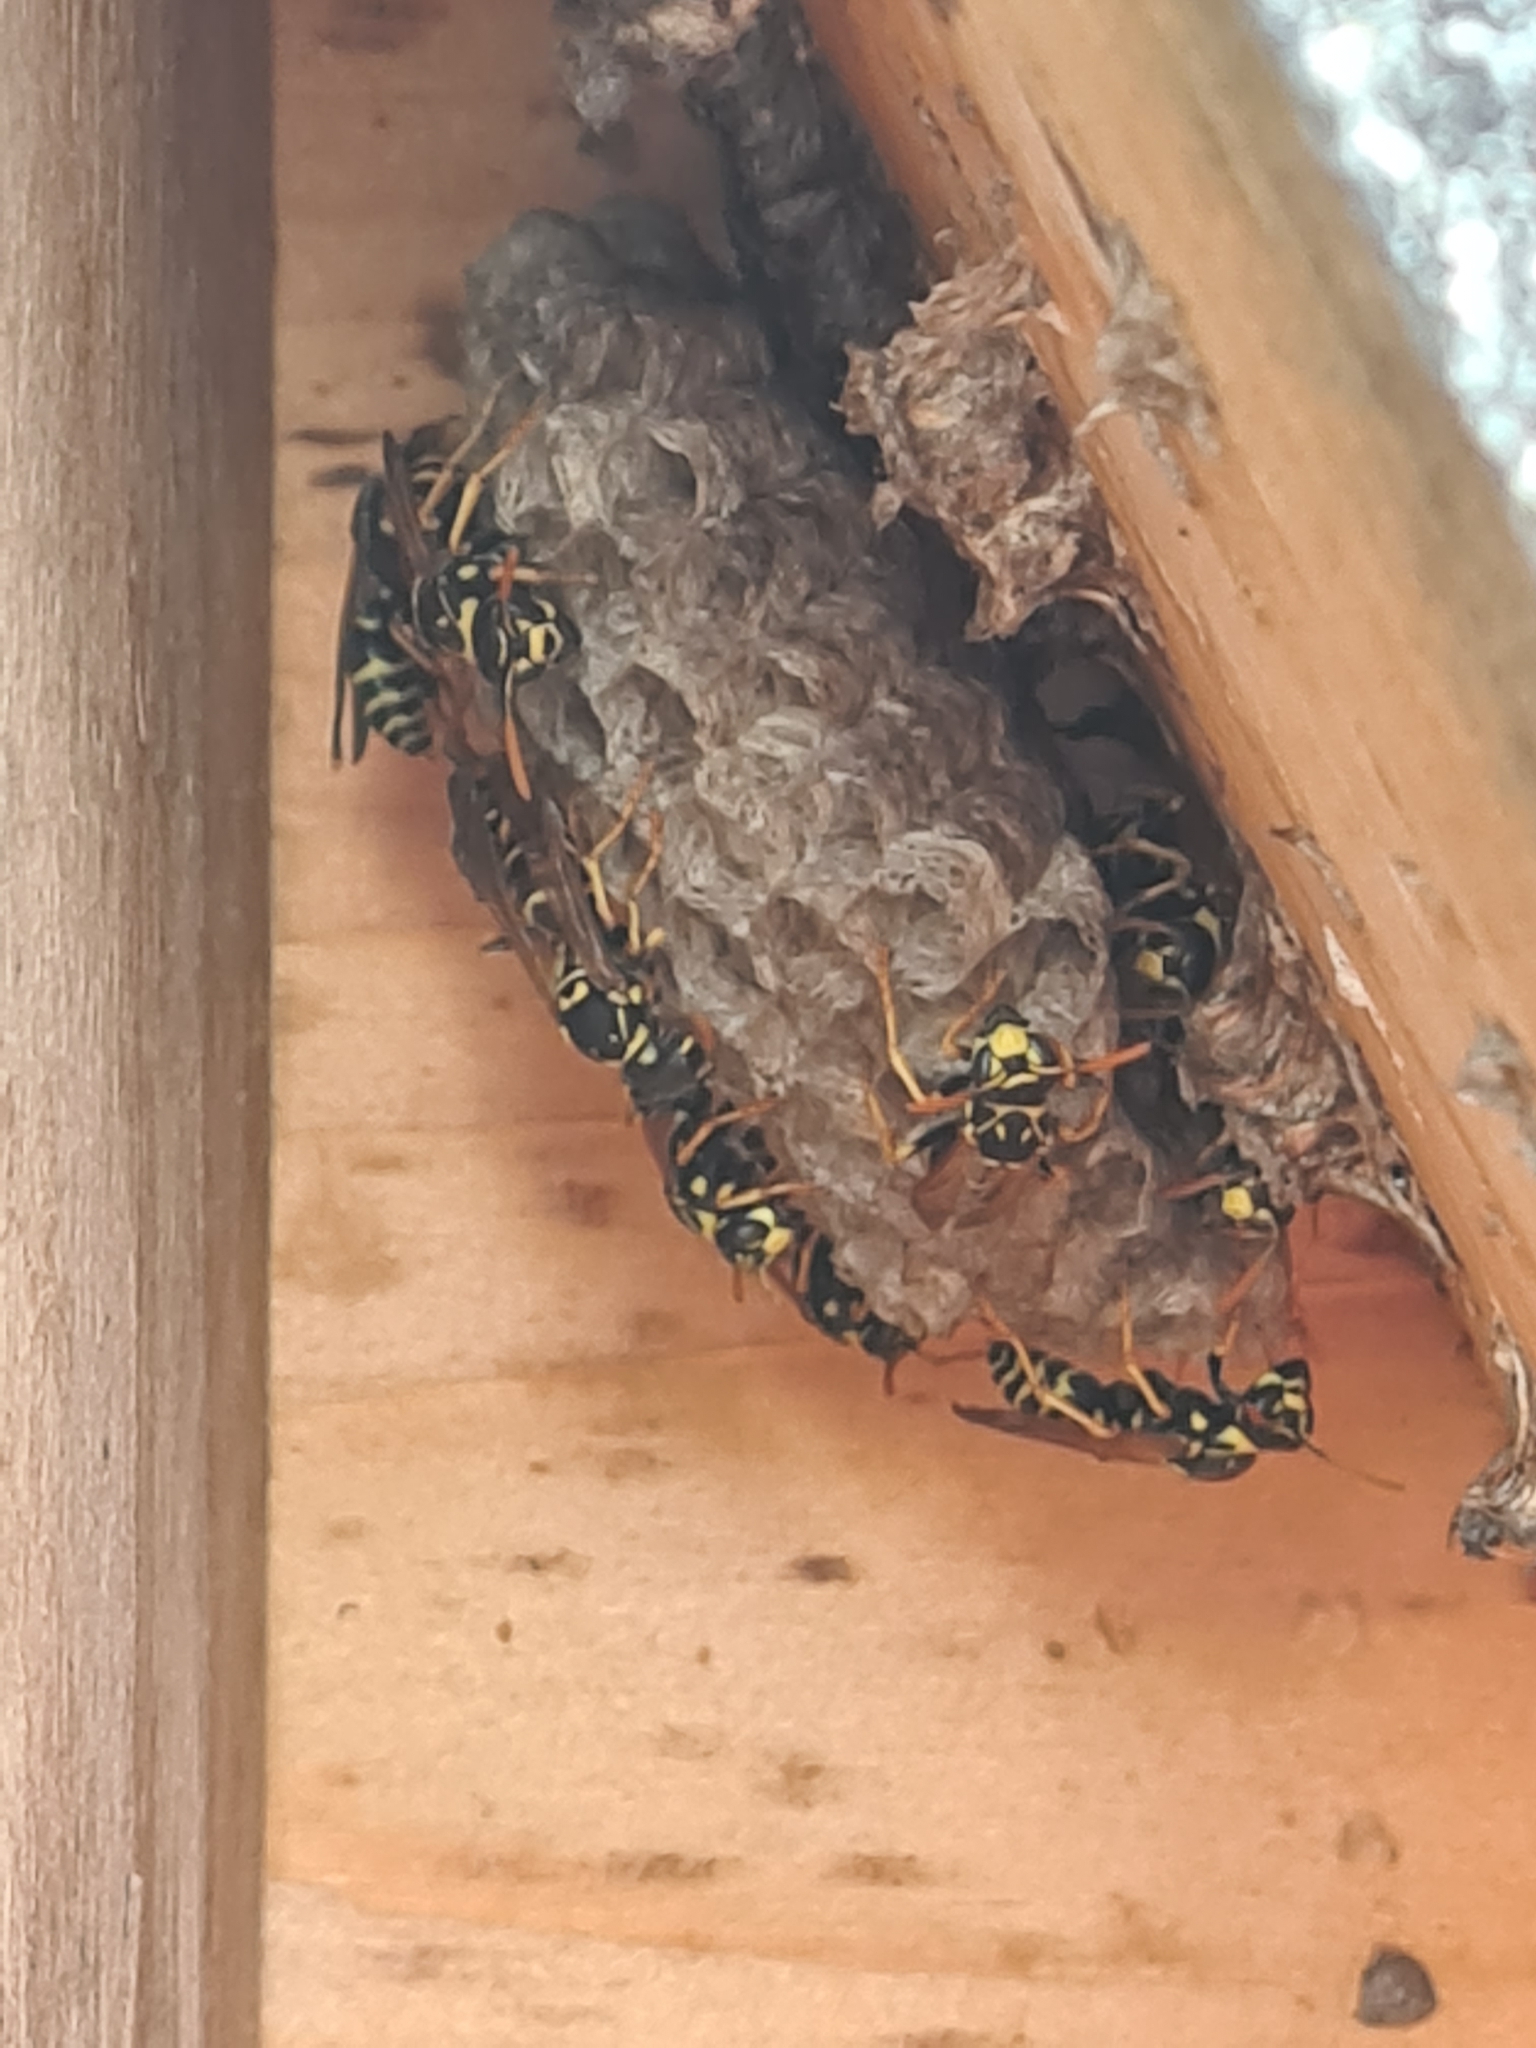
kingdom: Animalia
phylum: Arthropoda
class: Insecta
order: Hymenoptera
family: Eumenidae
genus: Polistes
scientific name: Polistes dominula
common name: Paper wasp
